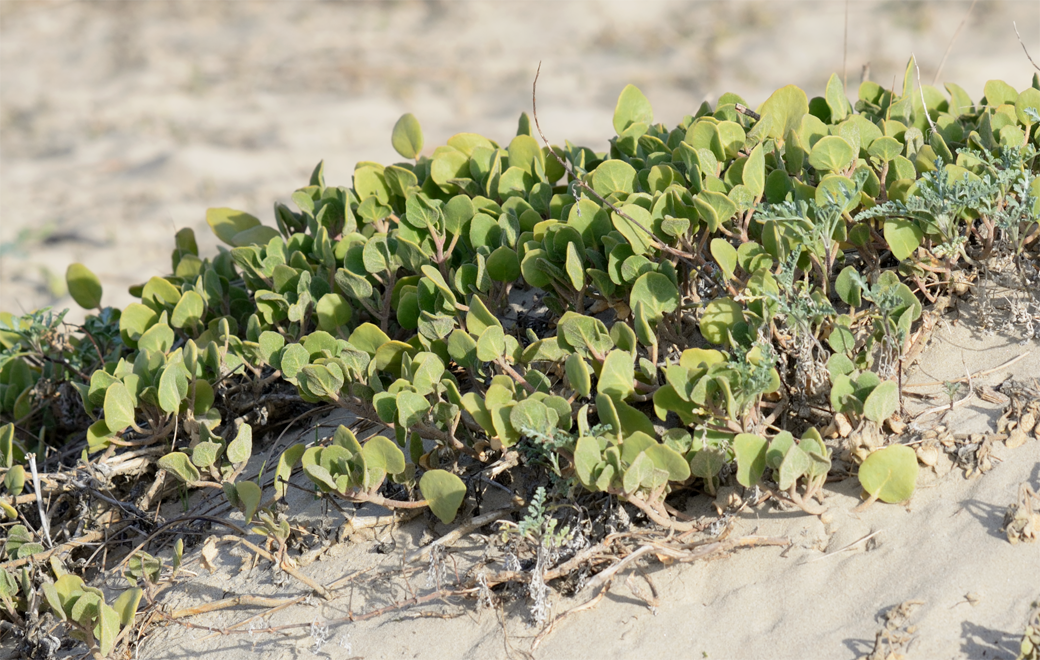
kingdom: Plantae
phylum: Tracheophyta
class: Magnoliopsida
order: Caryophyllales
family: Nyctaginaceae
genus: Abronia
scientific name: Abronia maritima
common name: Red sand-verbena
